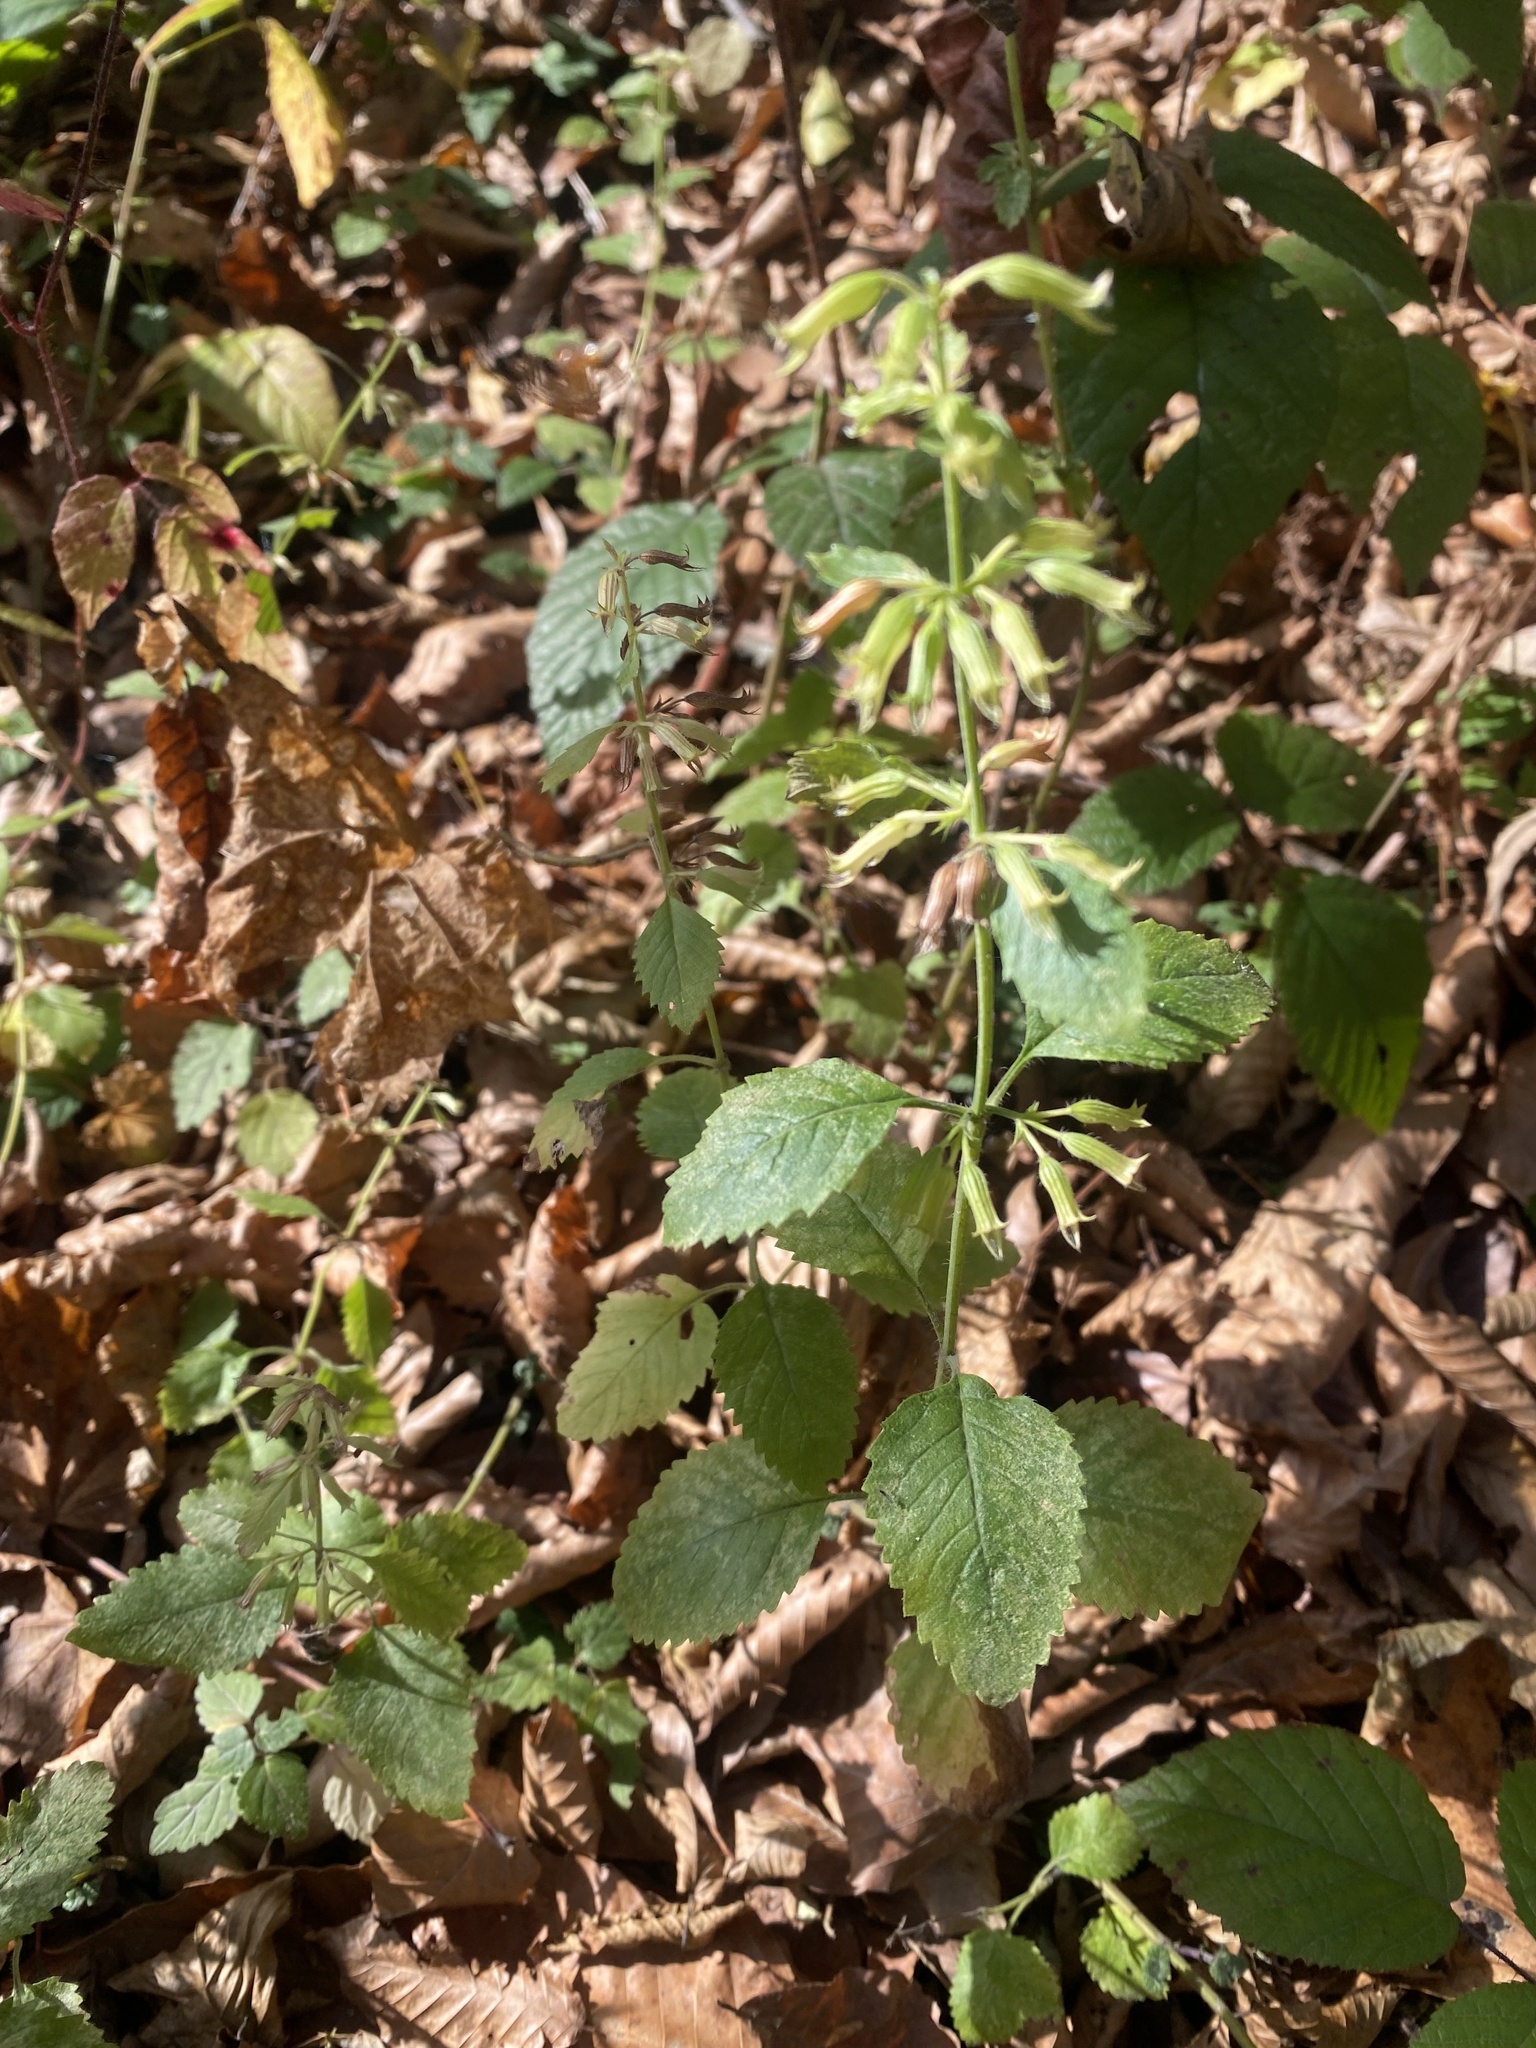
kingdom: Plantae
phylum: Tracheophyta
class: Magnoliopsida
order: Lamiales
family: Lamiaceae
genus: Clinopodium
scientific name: Clinopodium grandiflorum
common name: Greater calamint
